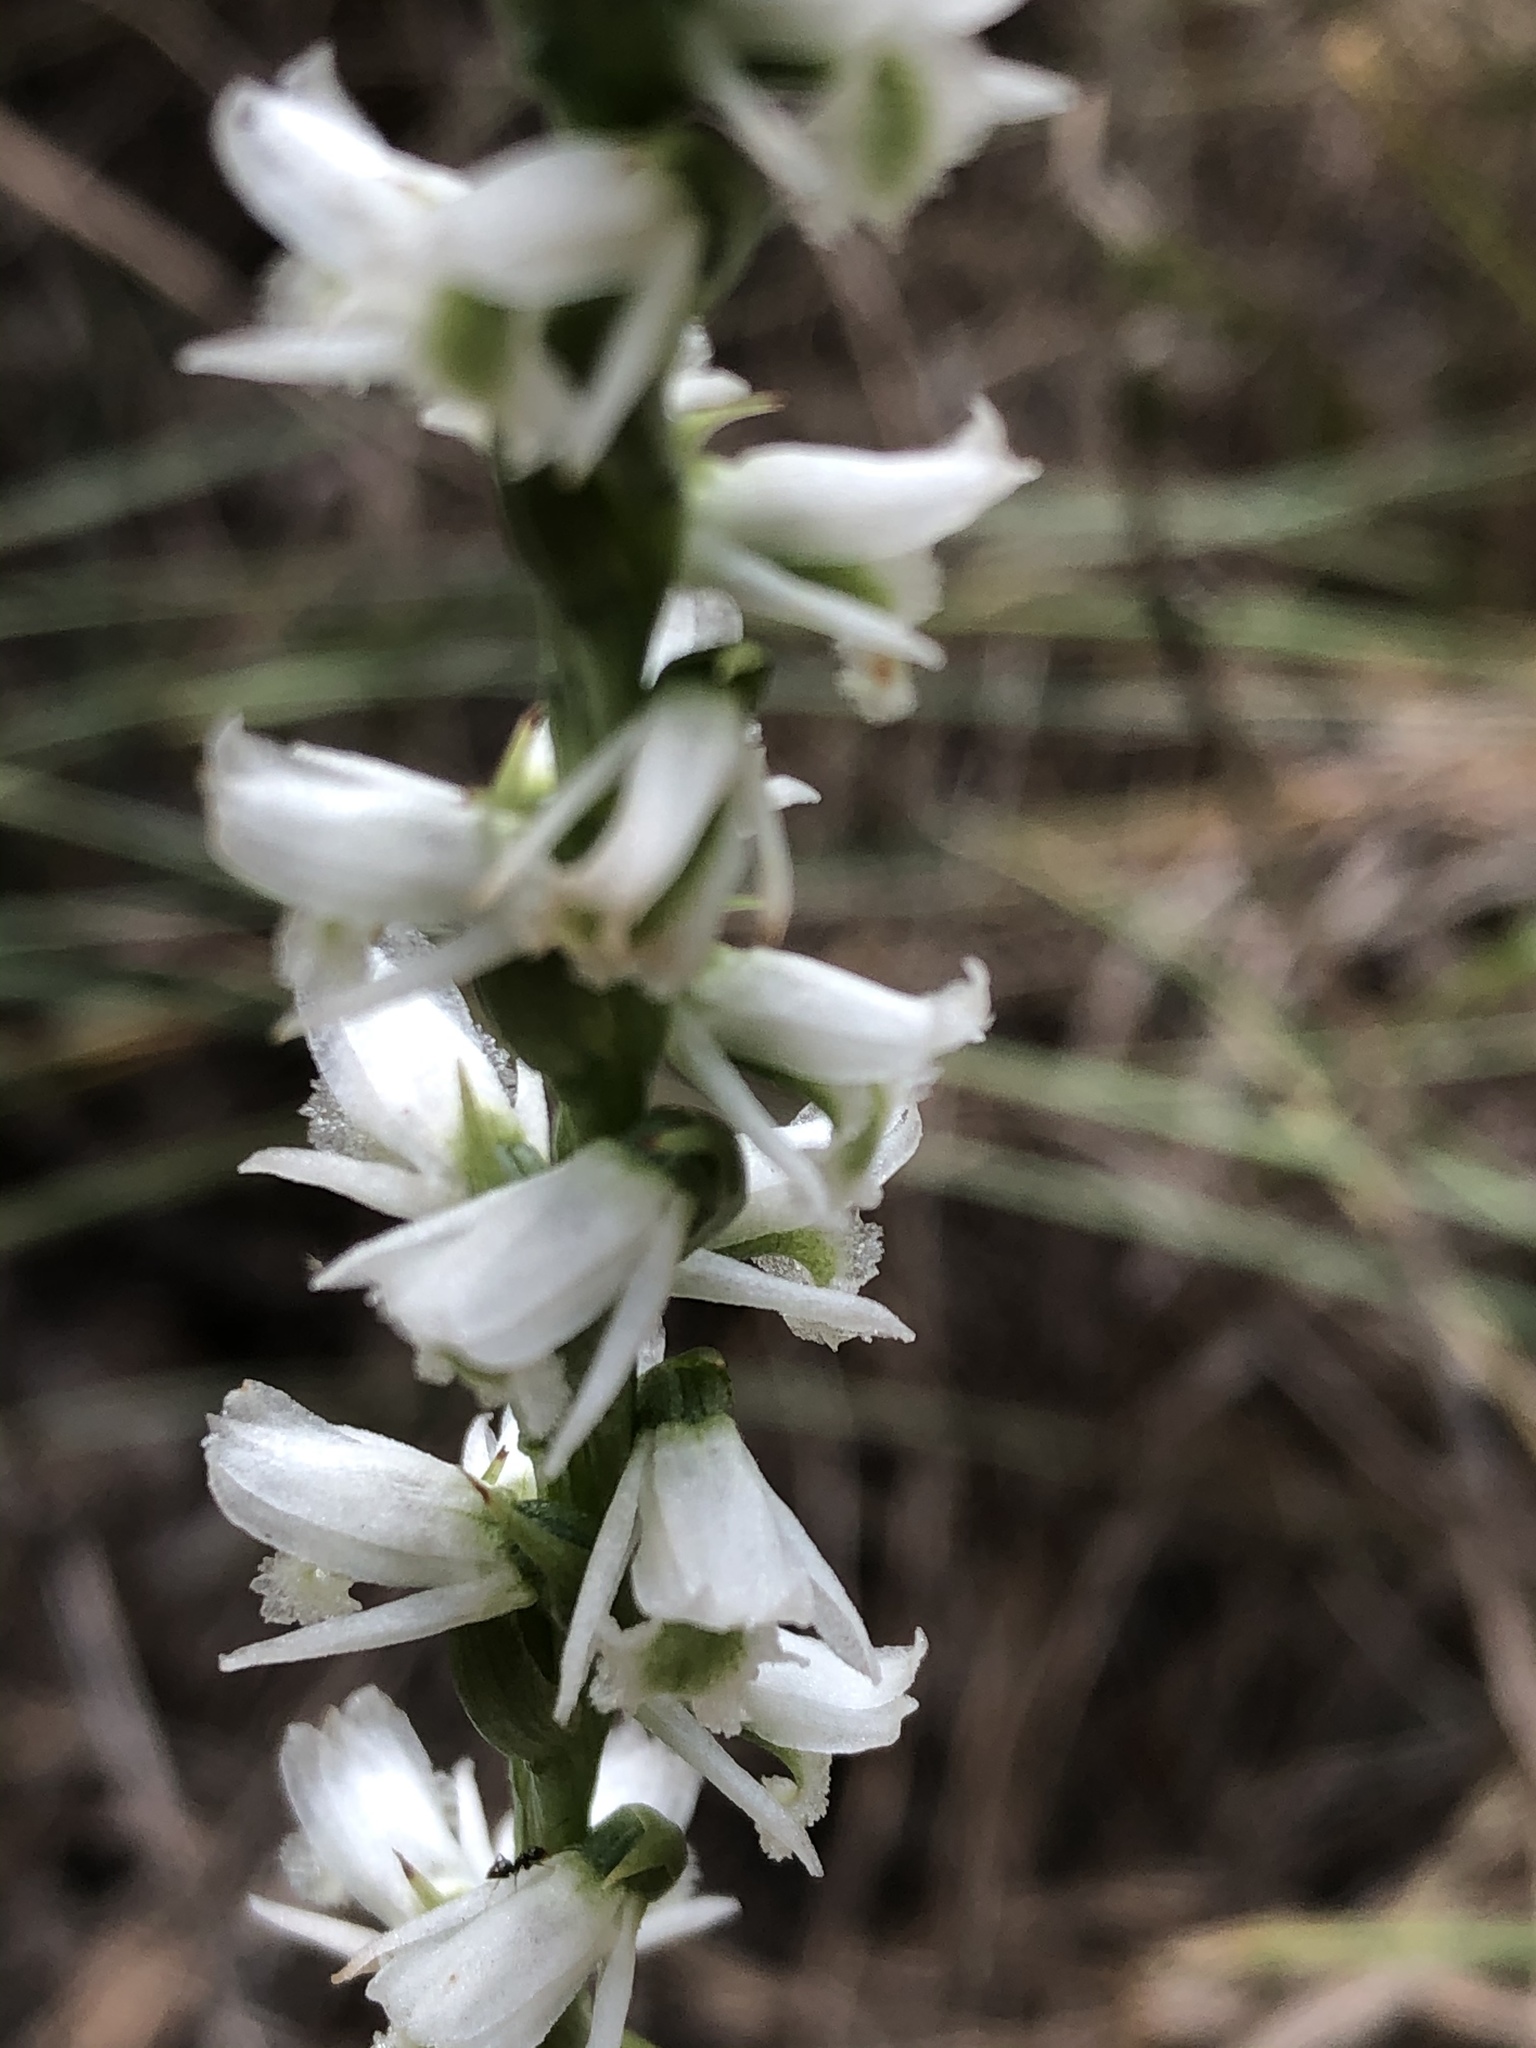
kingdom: Plantae
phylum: Tracheophyta
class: Liliopsida
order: Asparagales
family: Orchidaceae
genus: Spiranthes
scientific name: Spiranthes lacera
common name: Northern slender ladies'-tresses
